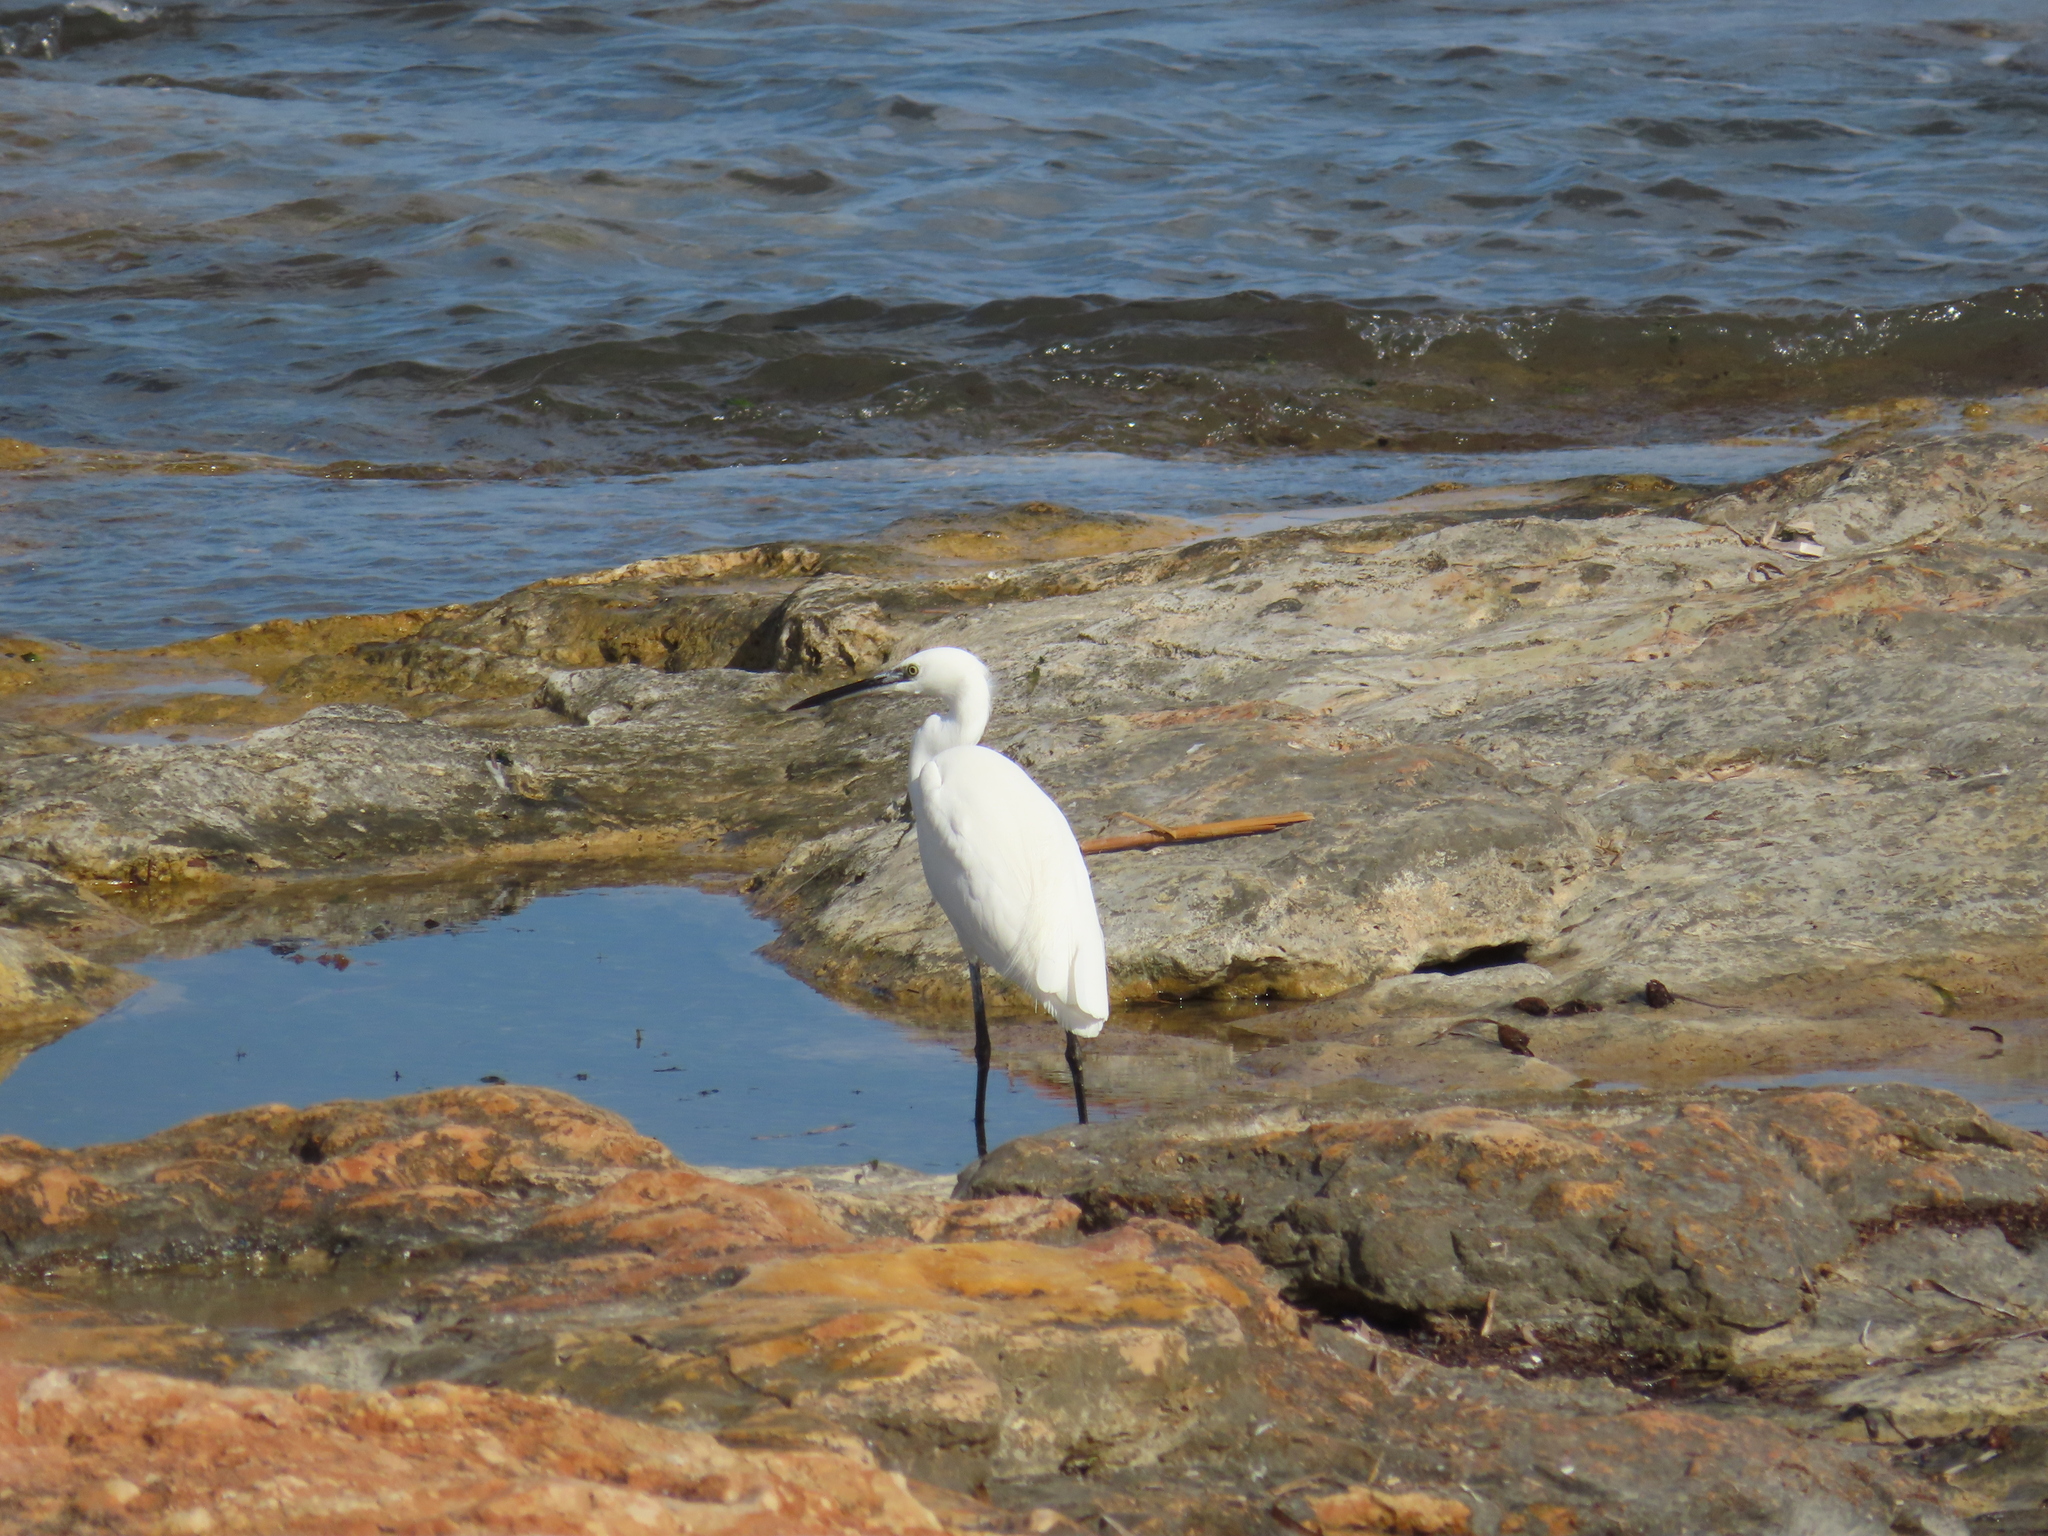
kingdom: Animalia
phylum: Chordata
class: Aves
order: Pelecaniformes
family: Ardeidae
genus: Egretta
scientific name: Egretta garzetta
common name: Little egret
